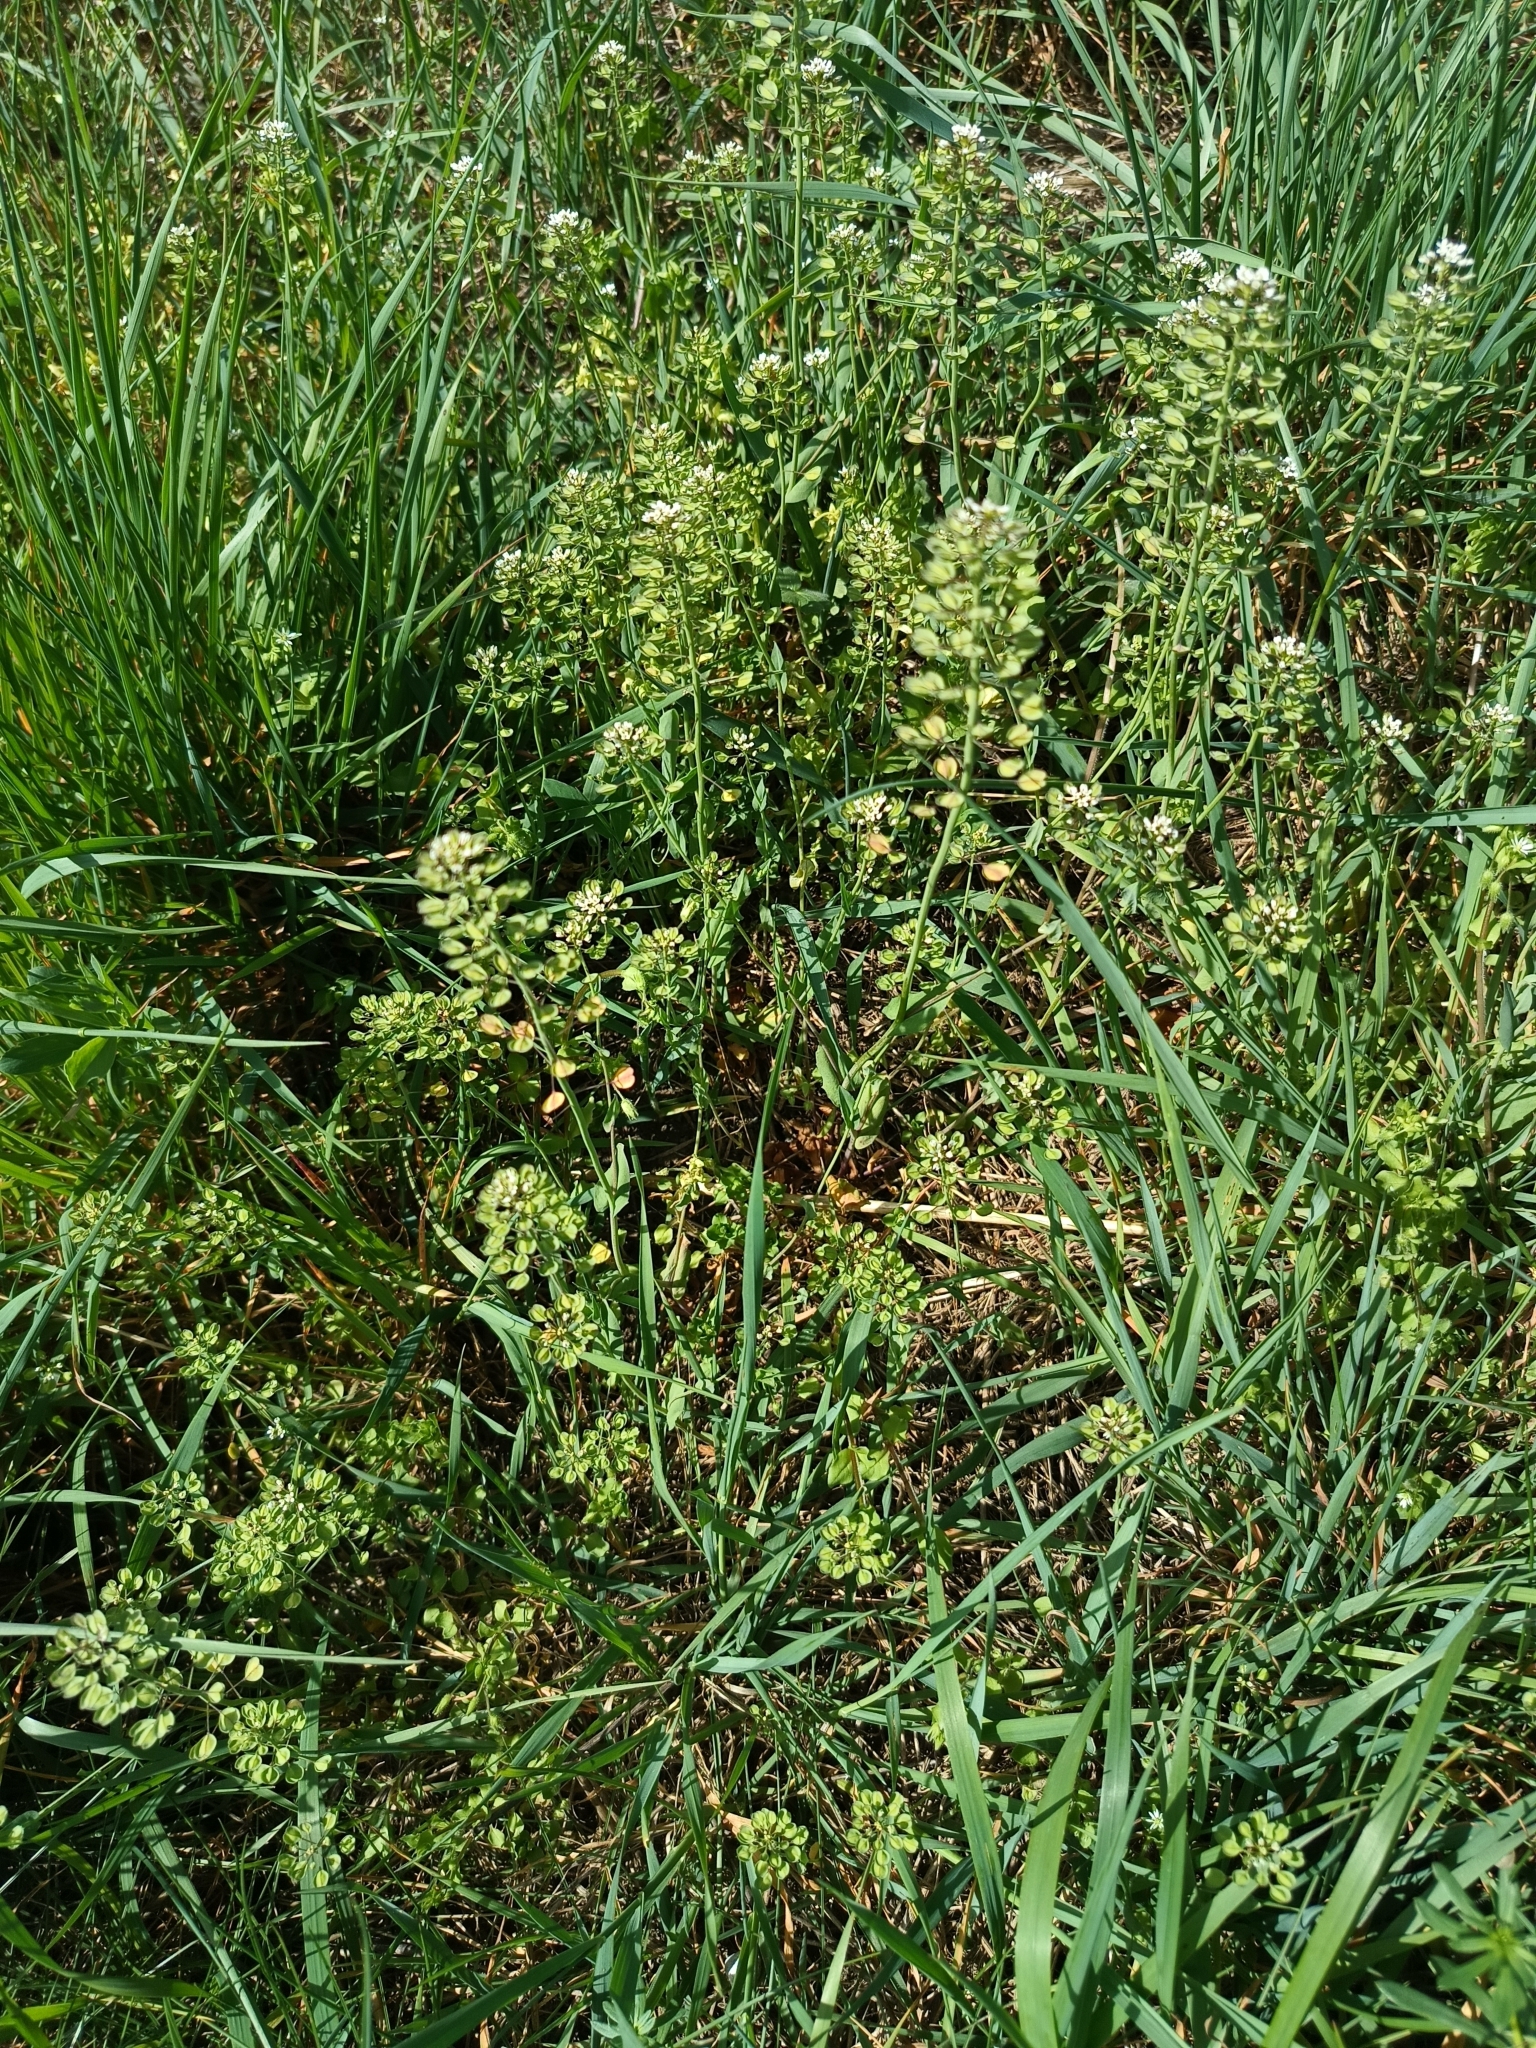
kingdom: Plantae
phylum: Tracheophyta
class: Magnoliopsida
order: Brassicales
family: Brassicaceae
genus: Noccaea
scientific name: Noccaea perfoliata
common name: Perfoliate pennycress
